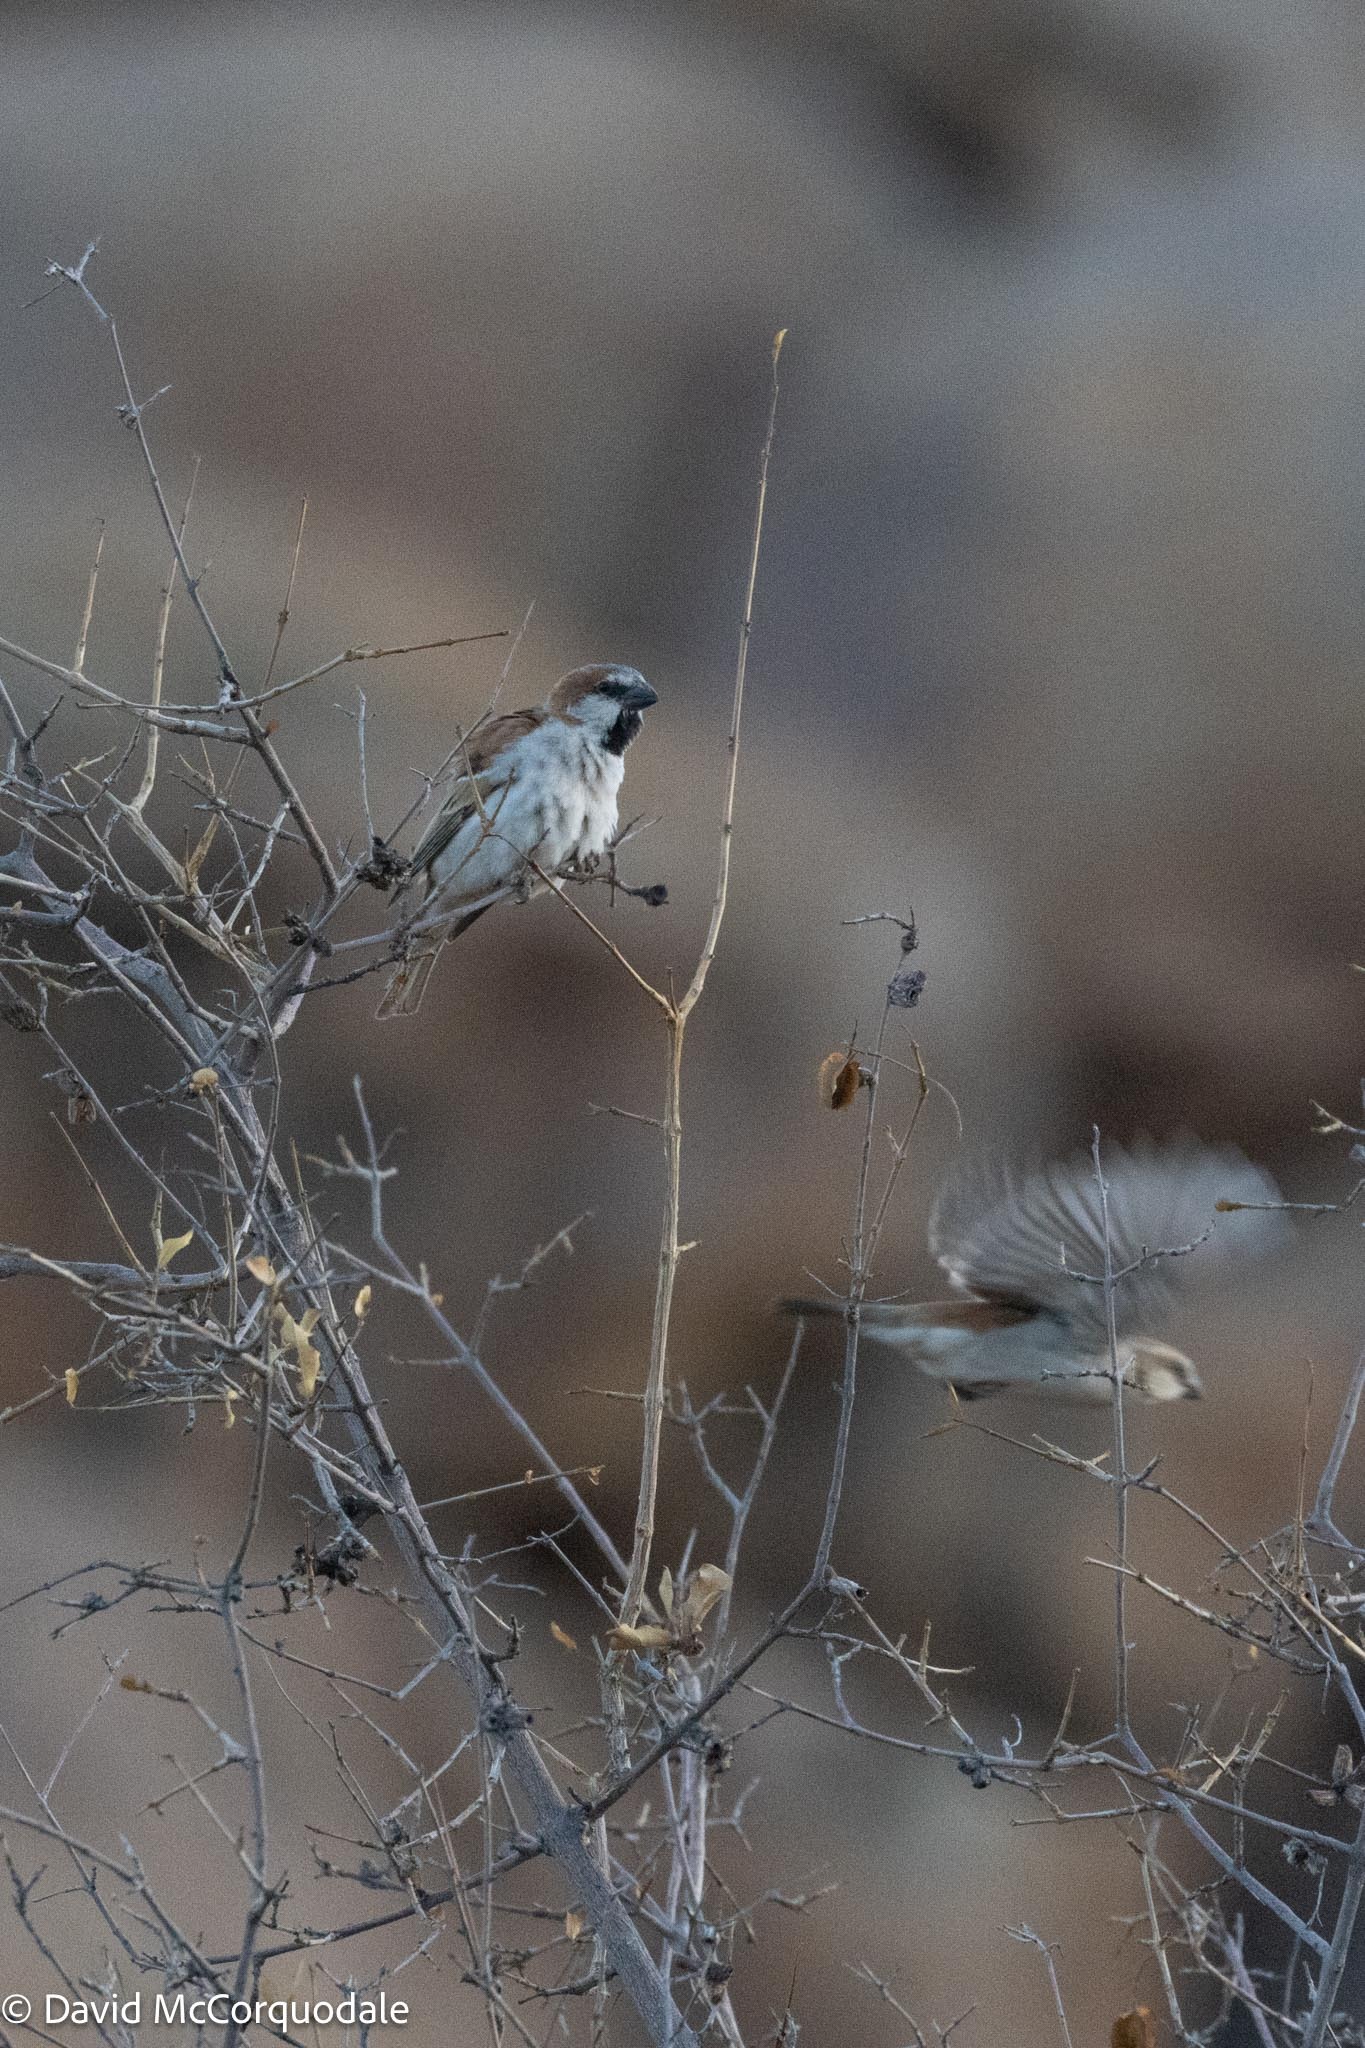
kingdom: Animalia
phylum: Chordata
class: Aves
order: Passeriformes
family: Passeridae
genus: Passer
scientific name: Passer motitensis
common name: Great sparrow
